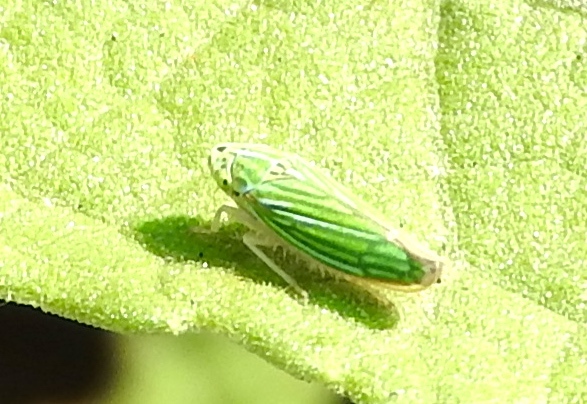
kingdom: Animalia
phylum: Arthropoda
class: Insecta
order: Hemiptera
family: Cicadellidae
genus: Graphocephala
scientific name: Graphocephala cythura
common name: Leafhopper
